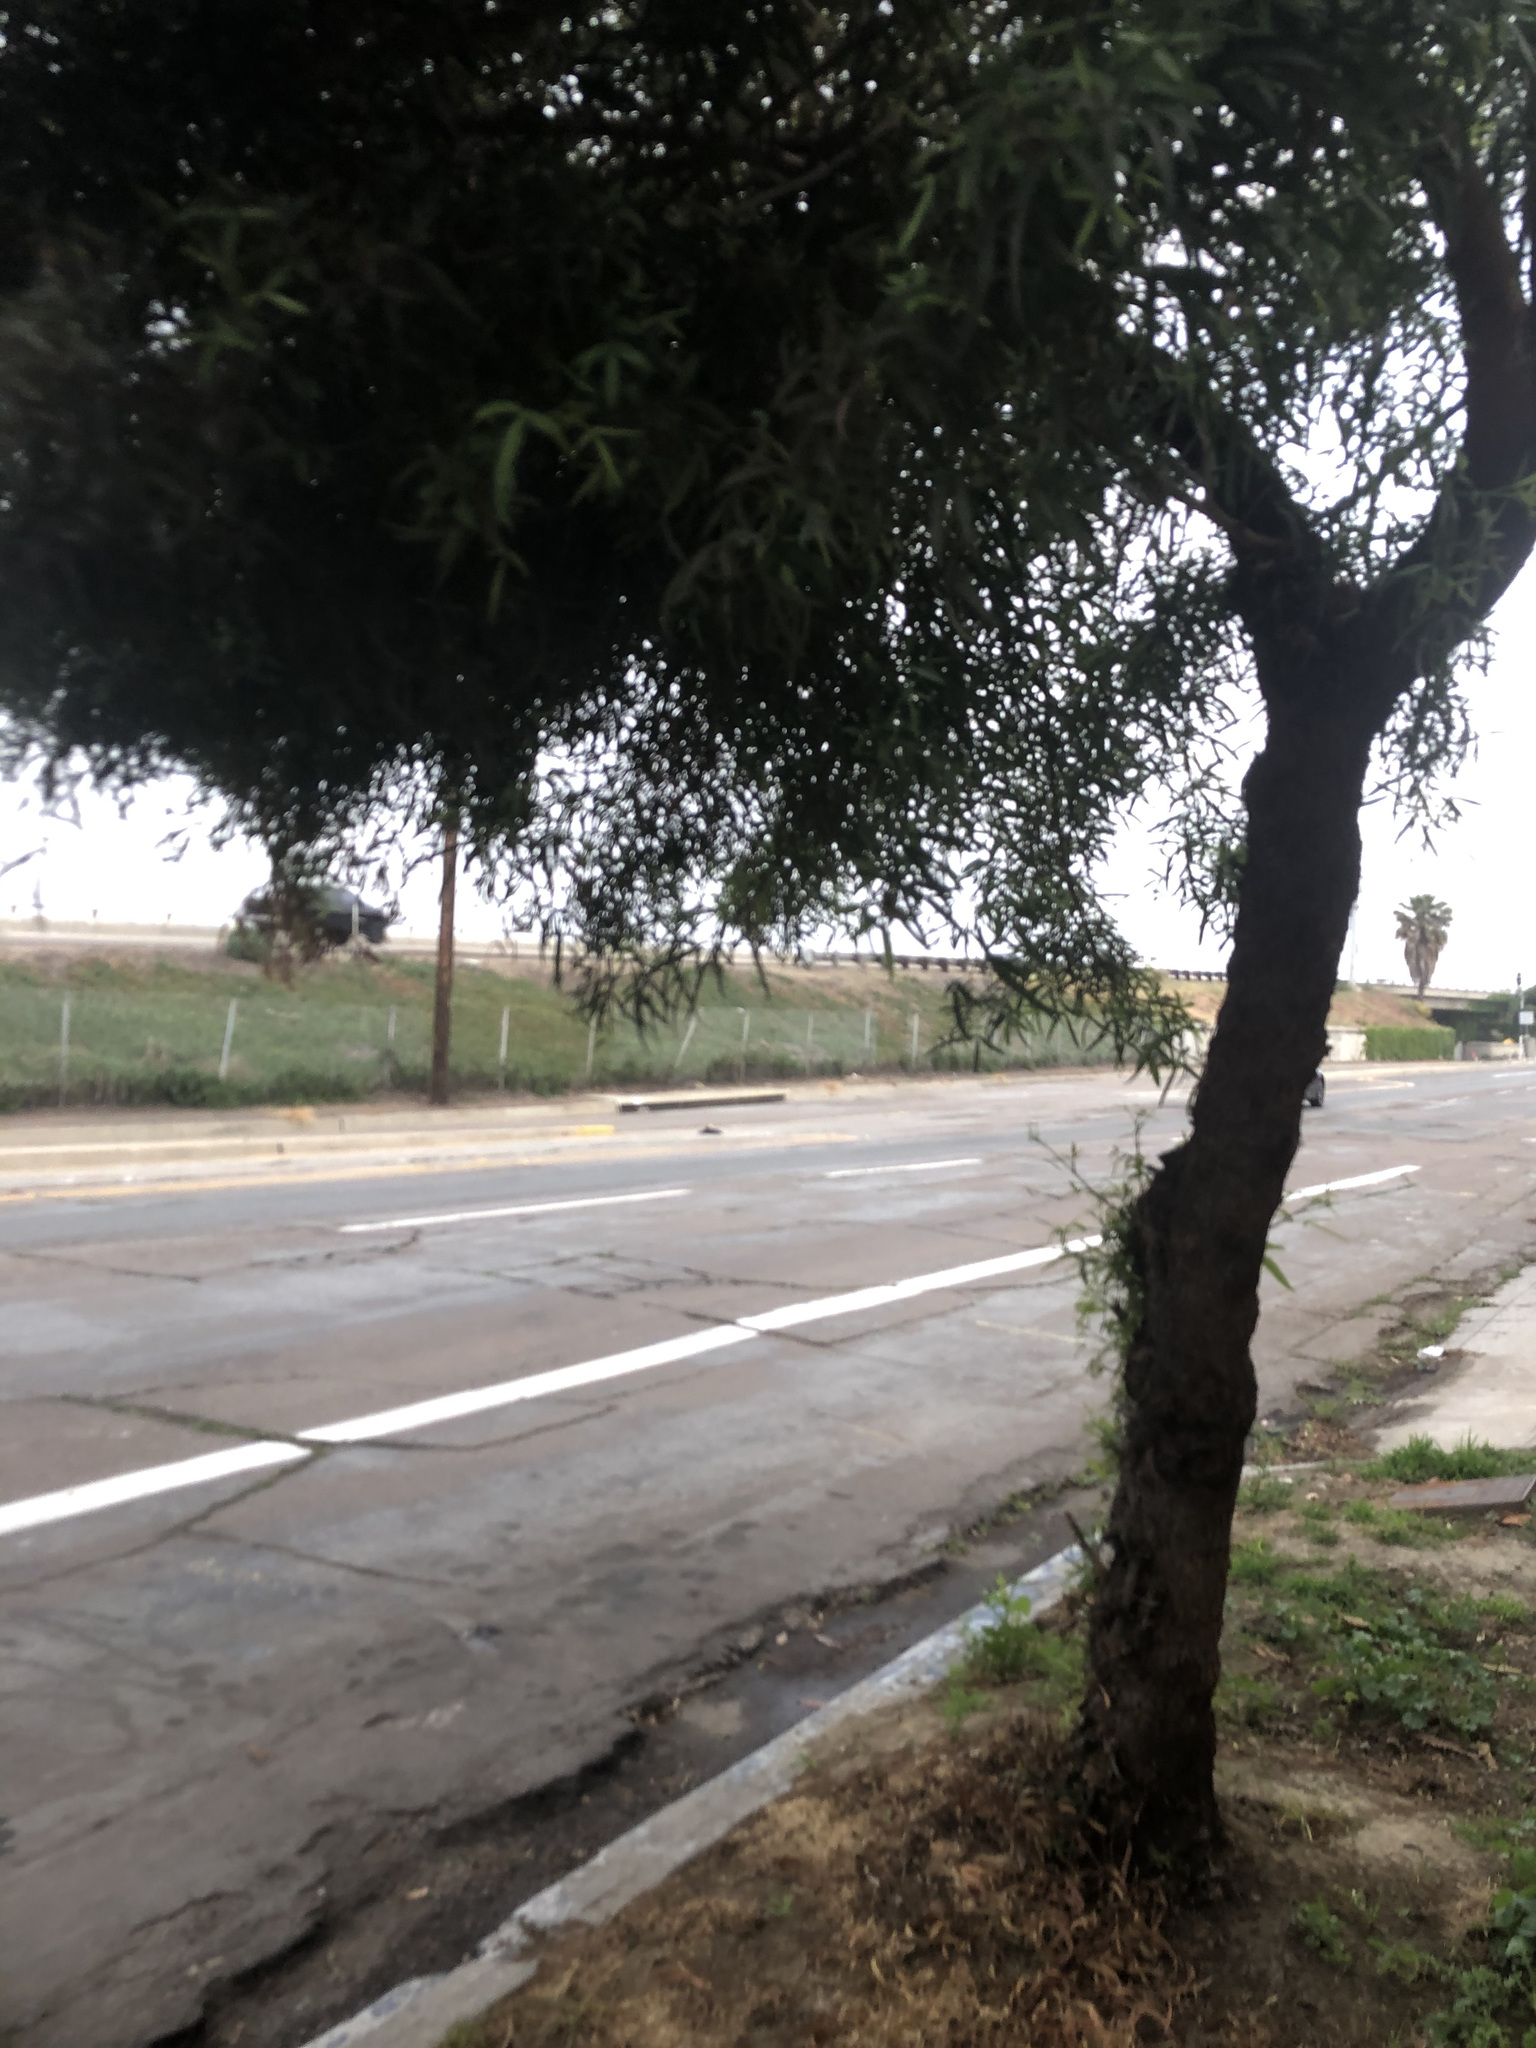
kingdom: Plantae
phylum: Tracheophyta
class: Magnoliopsida
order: Sapindales
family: Anacardiaceae
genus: Searsia
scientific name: Searsia lancea
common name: Cashew
